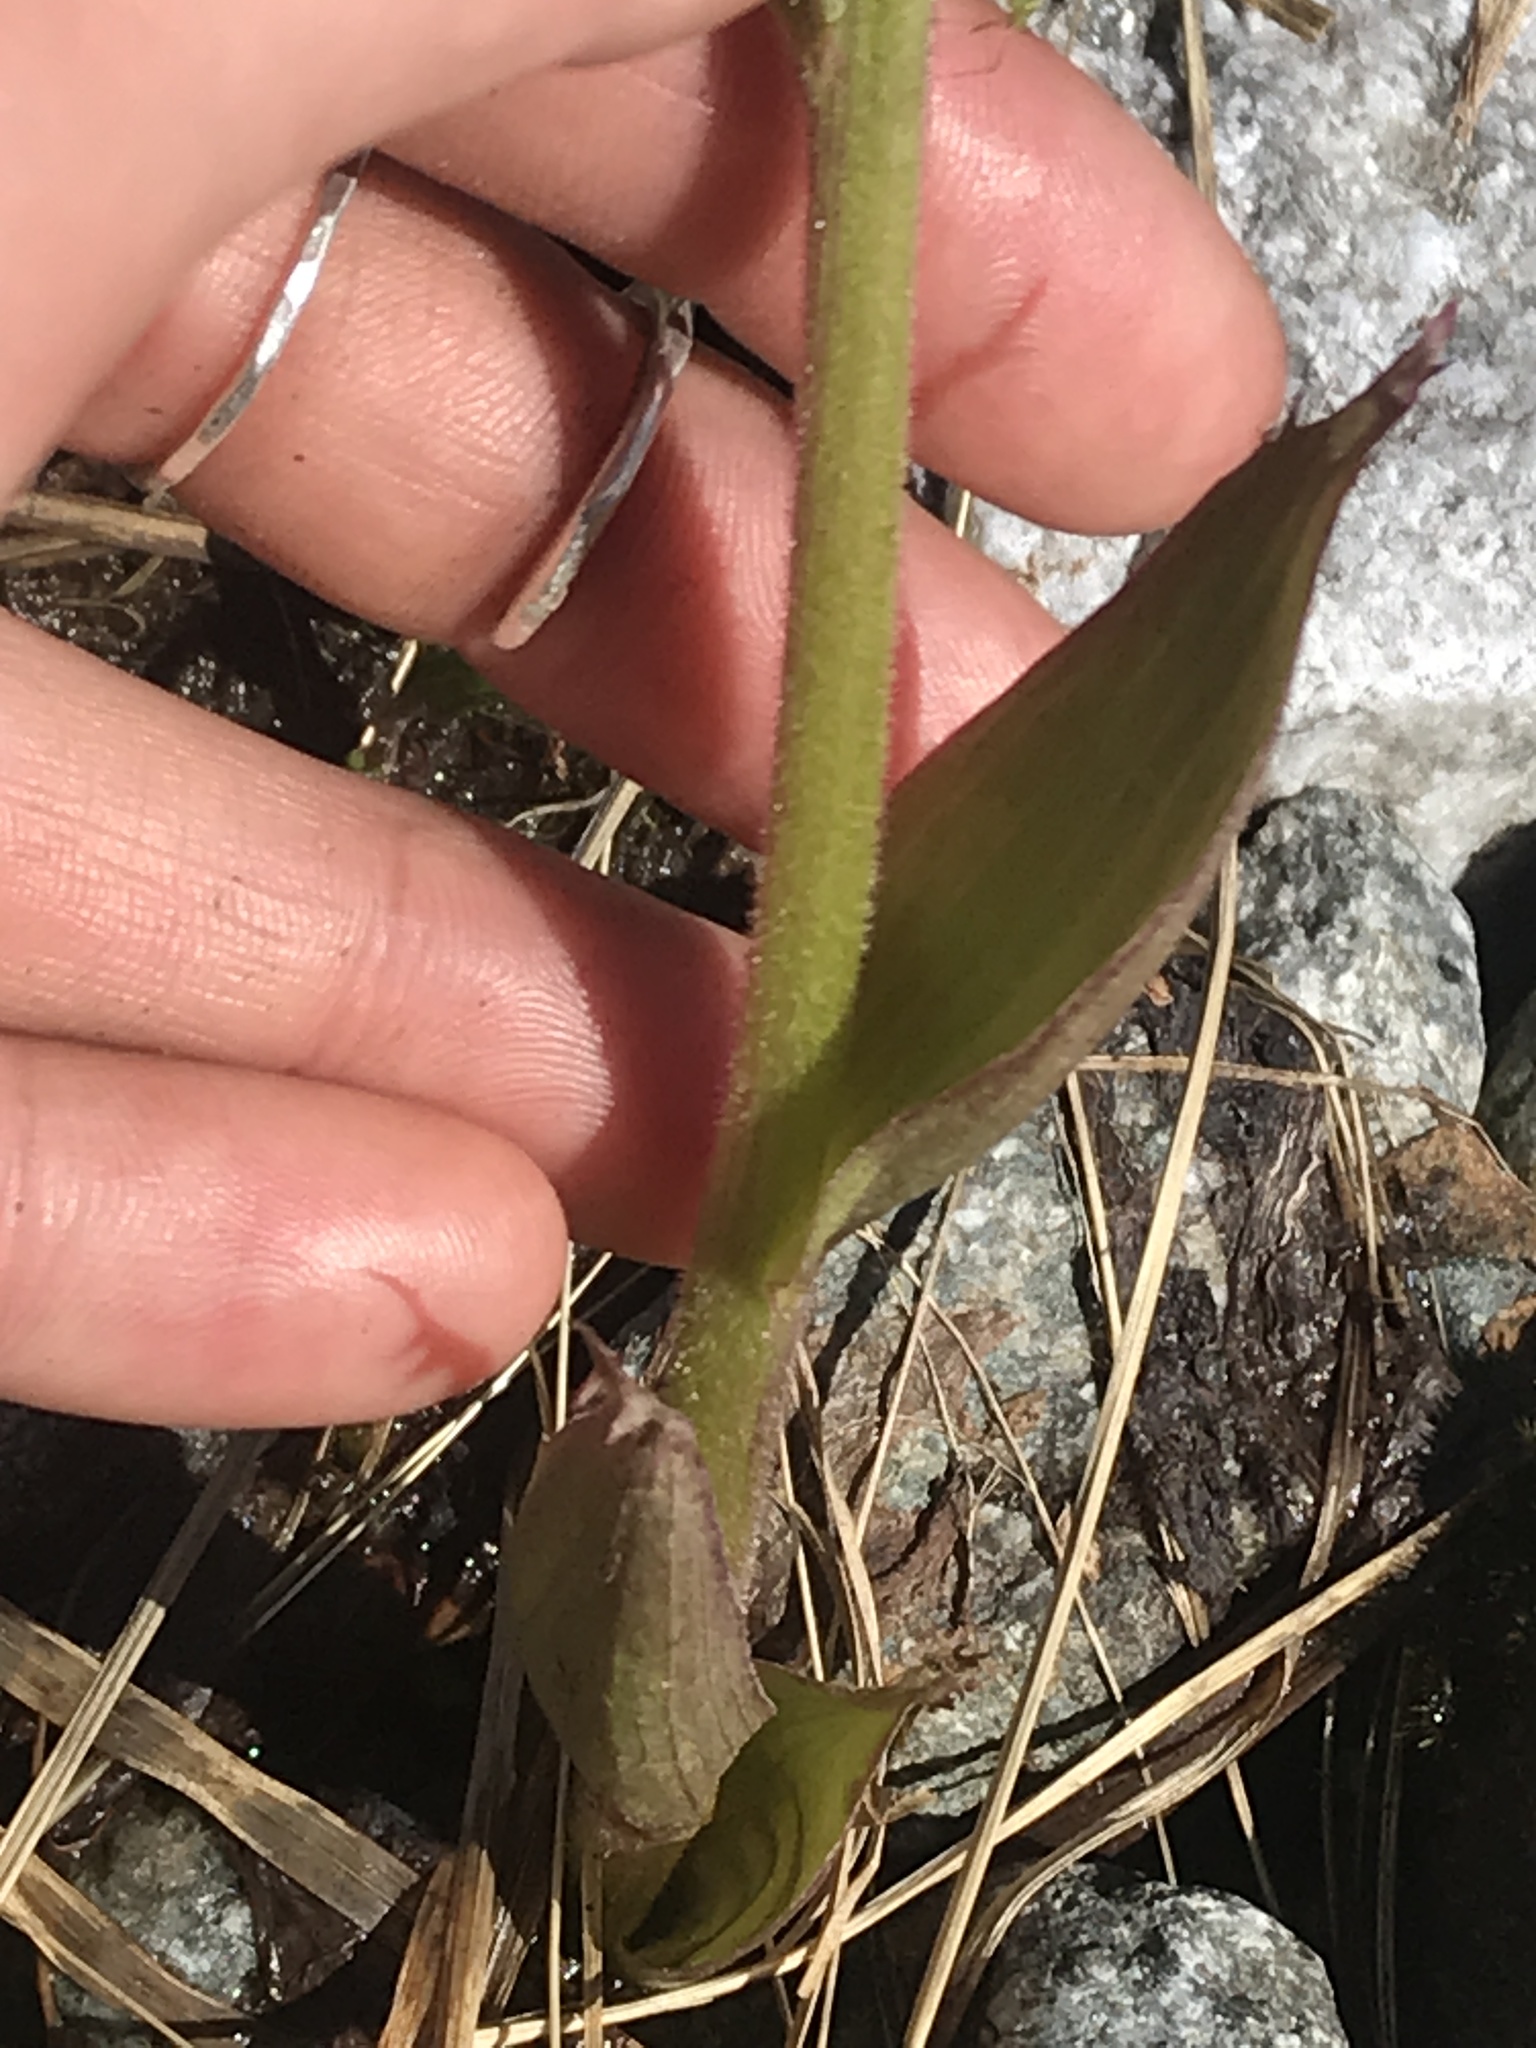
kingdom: Plantae
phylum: Tracheophyta
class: Magnoliopsida
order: Asterales
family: Asteraceae
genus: Petasites
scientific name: Petasites frigidus
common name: Arctic butterbur
